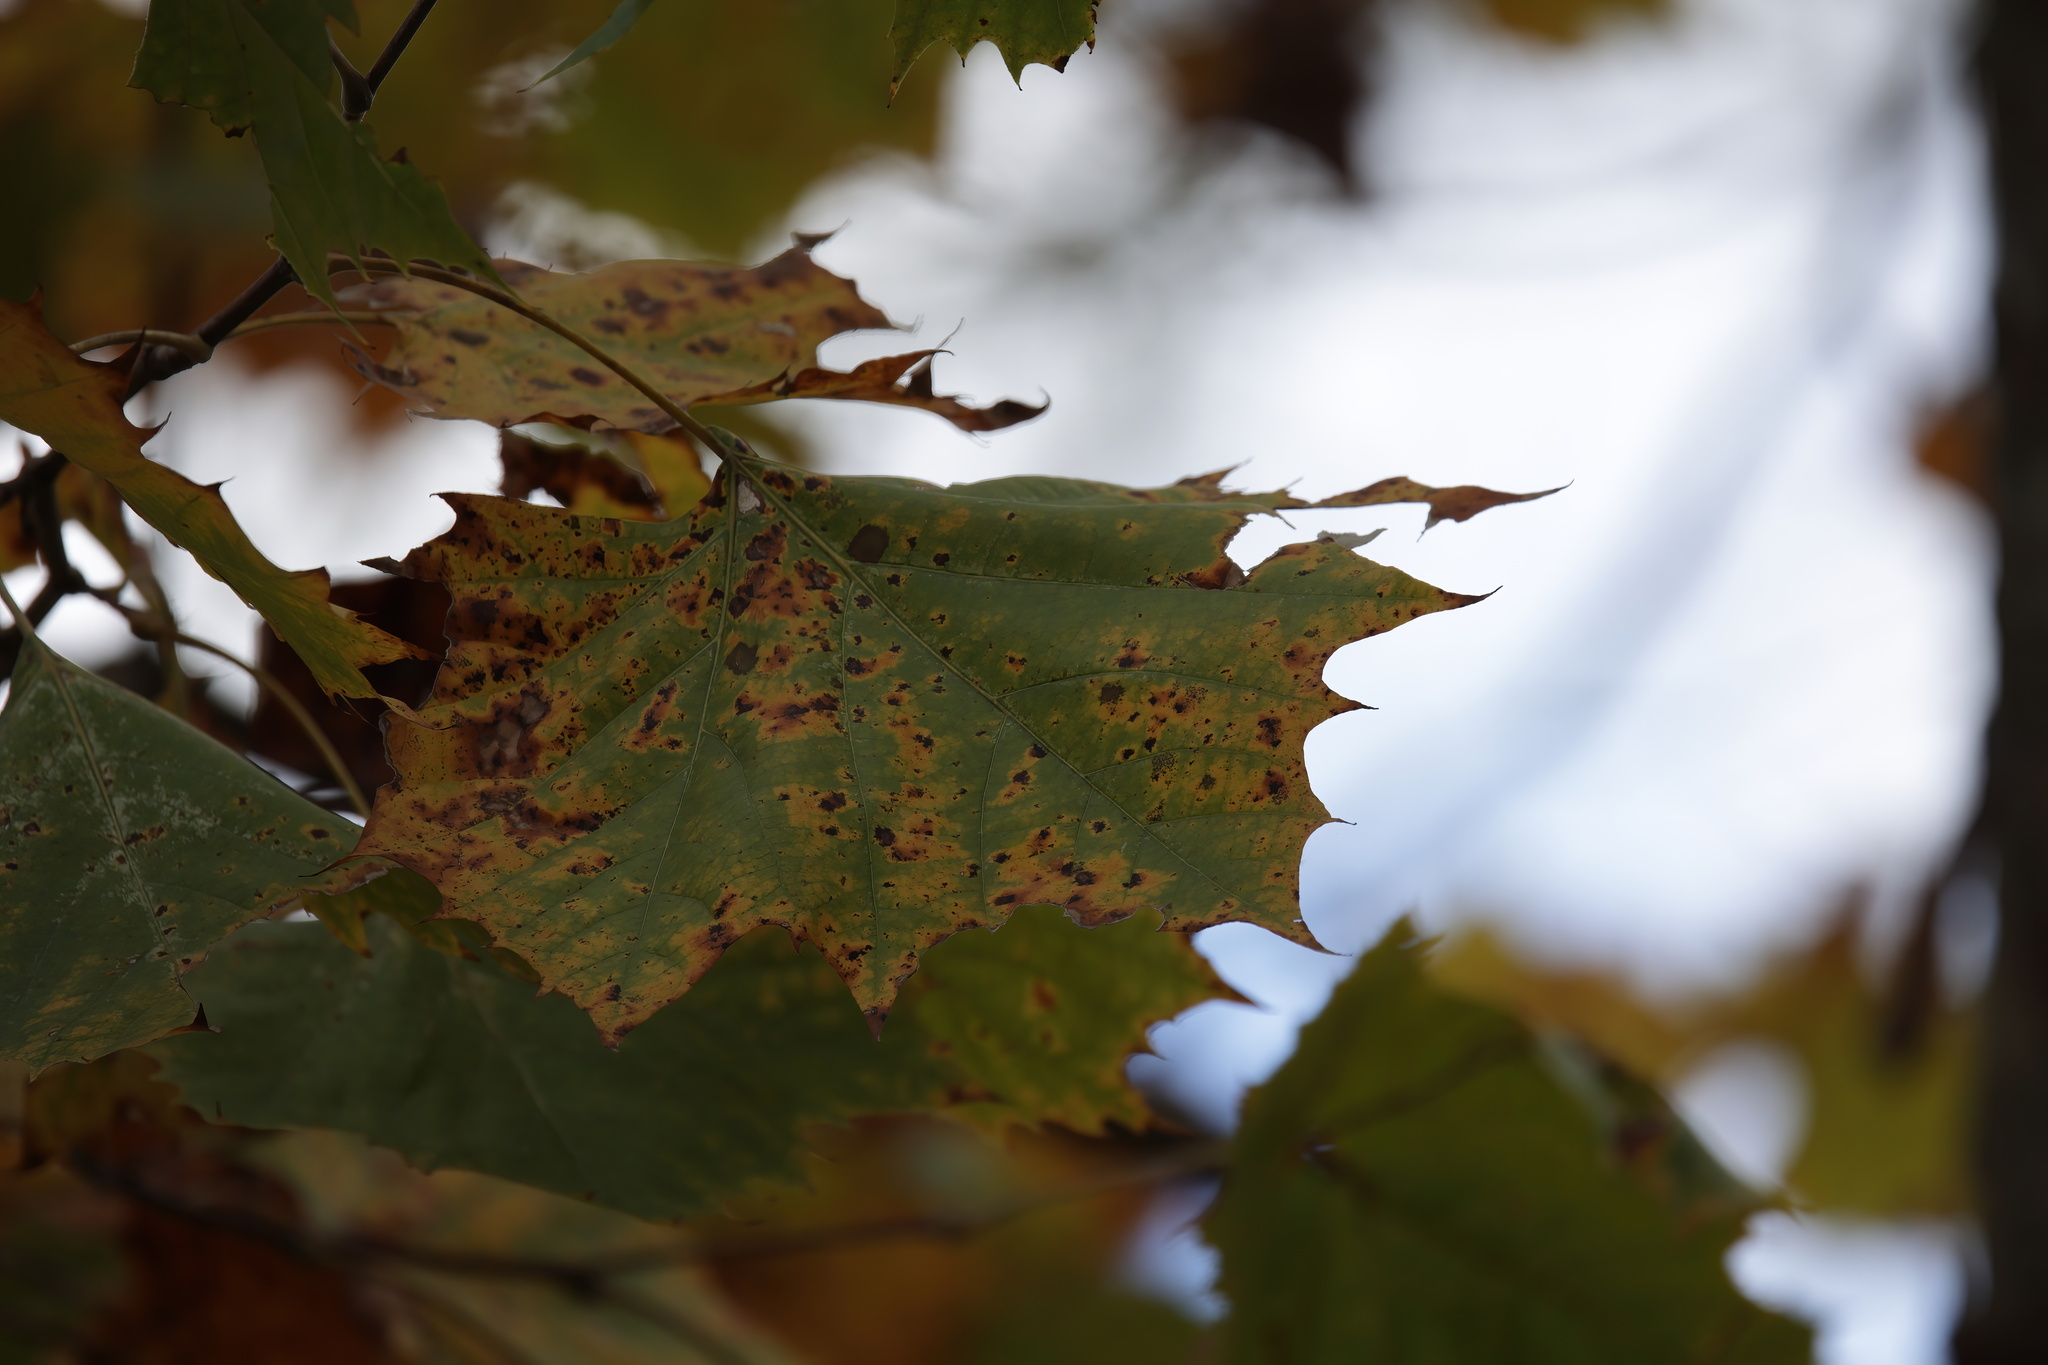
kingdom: Plantae
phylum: Tracheophyta
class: Magnoliopsida
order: Proteales
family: Platanaceae
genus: Platanus
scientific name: Platanus occidentalis
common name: American sycamore
